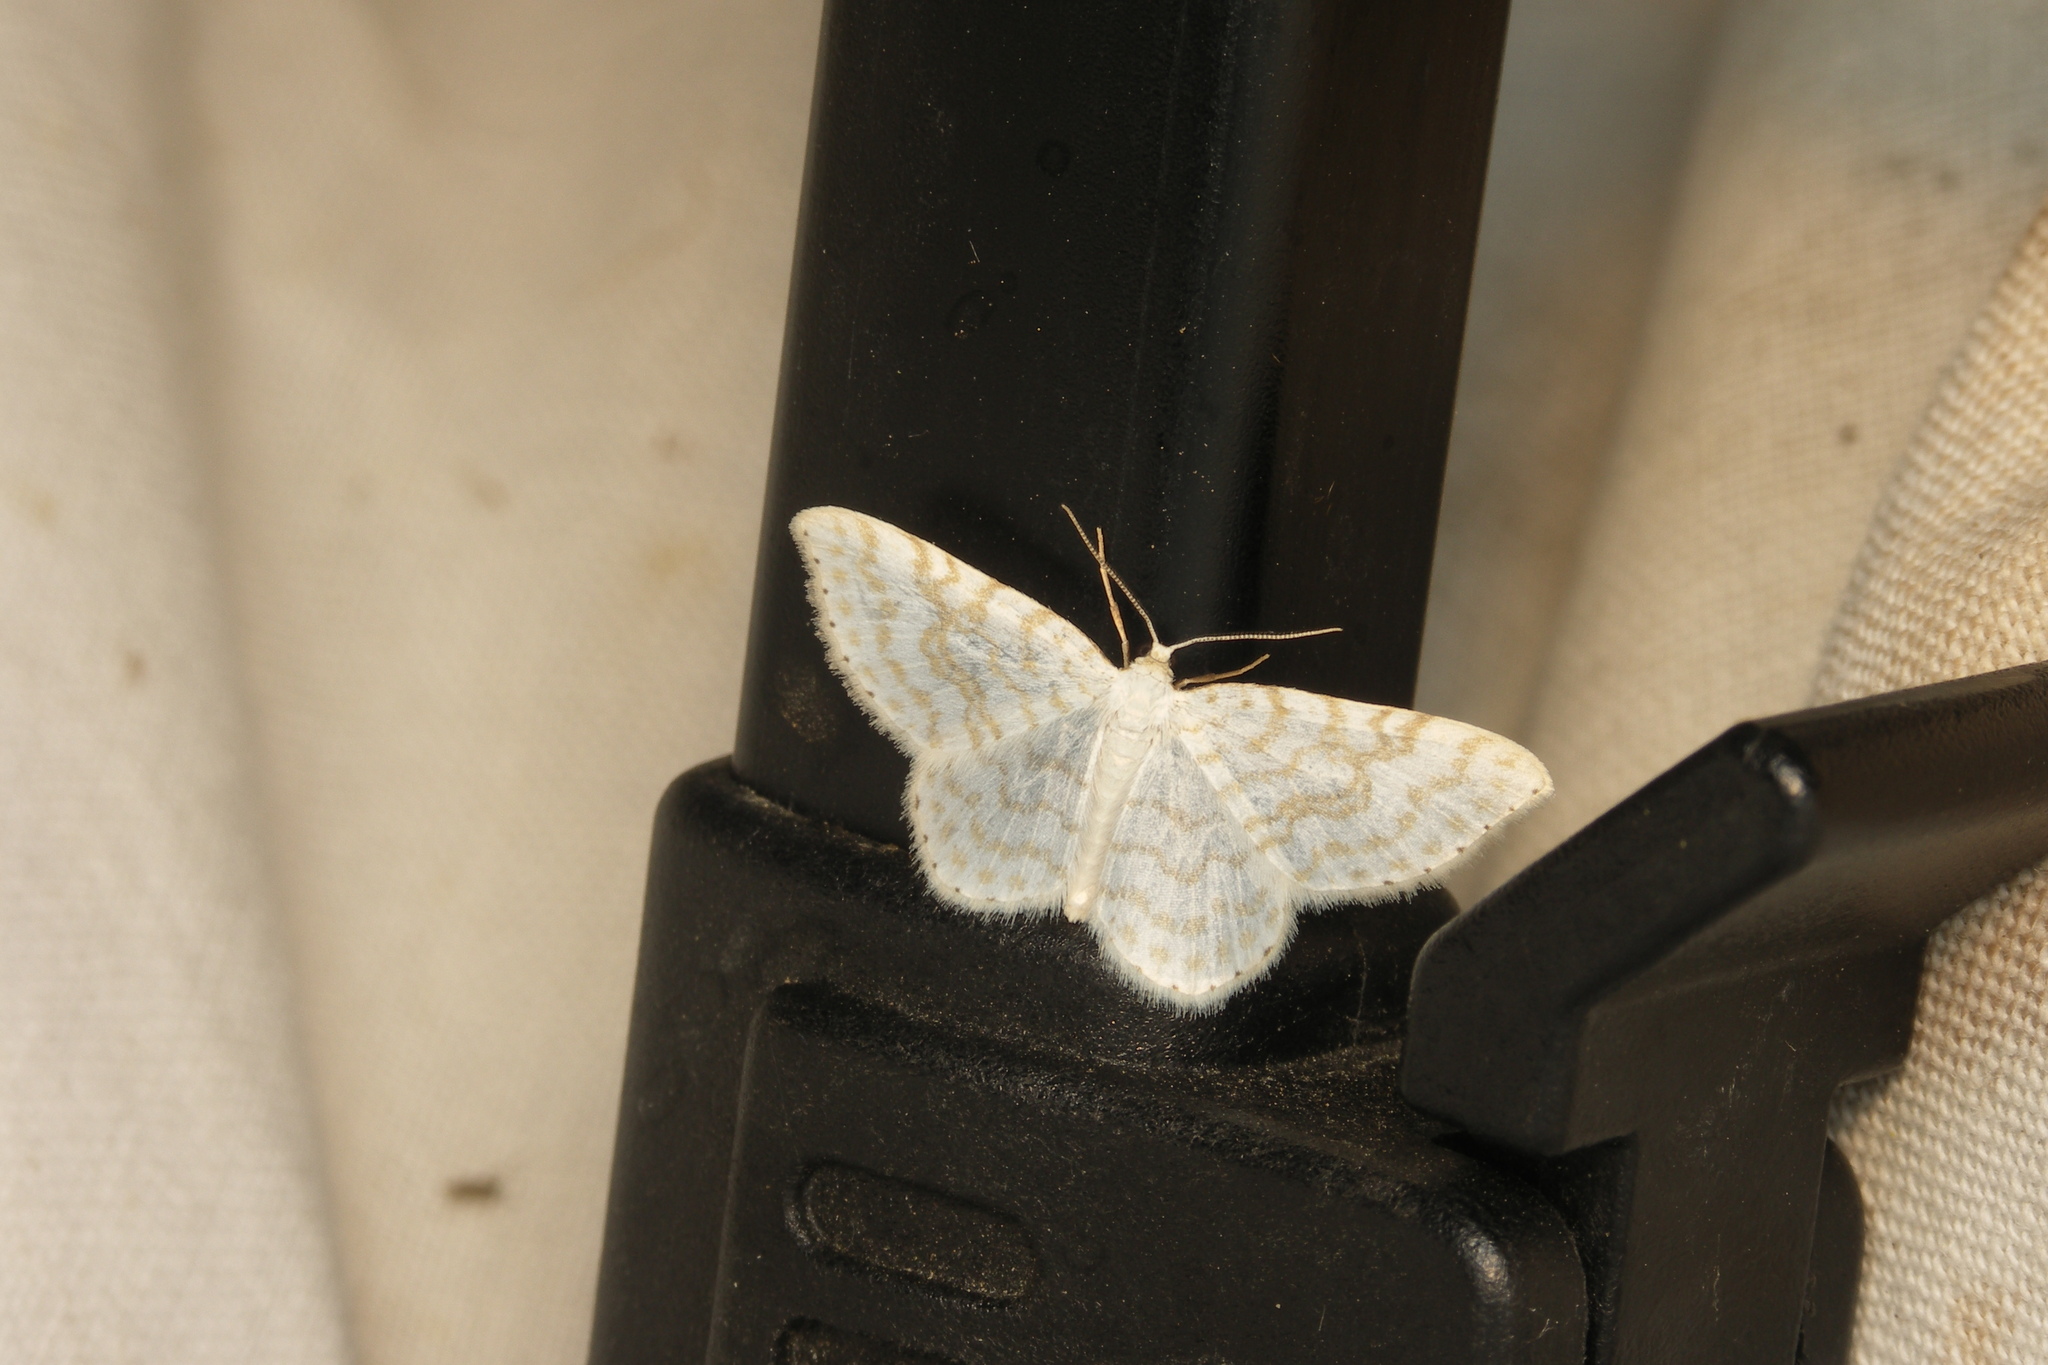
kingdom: Animalia
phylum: Arthropoda
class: Insecta
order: Lepidoptera
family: Geometridae
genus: Asthena
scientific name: Asthena albulata
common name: Small white wave
